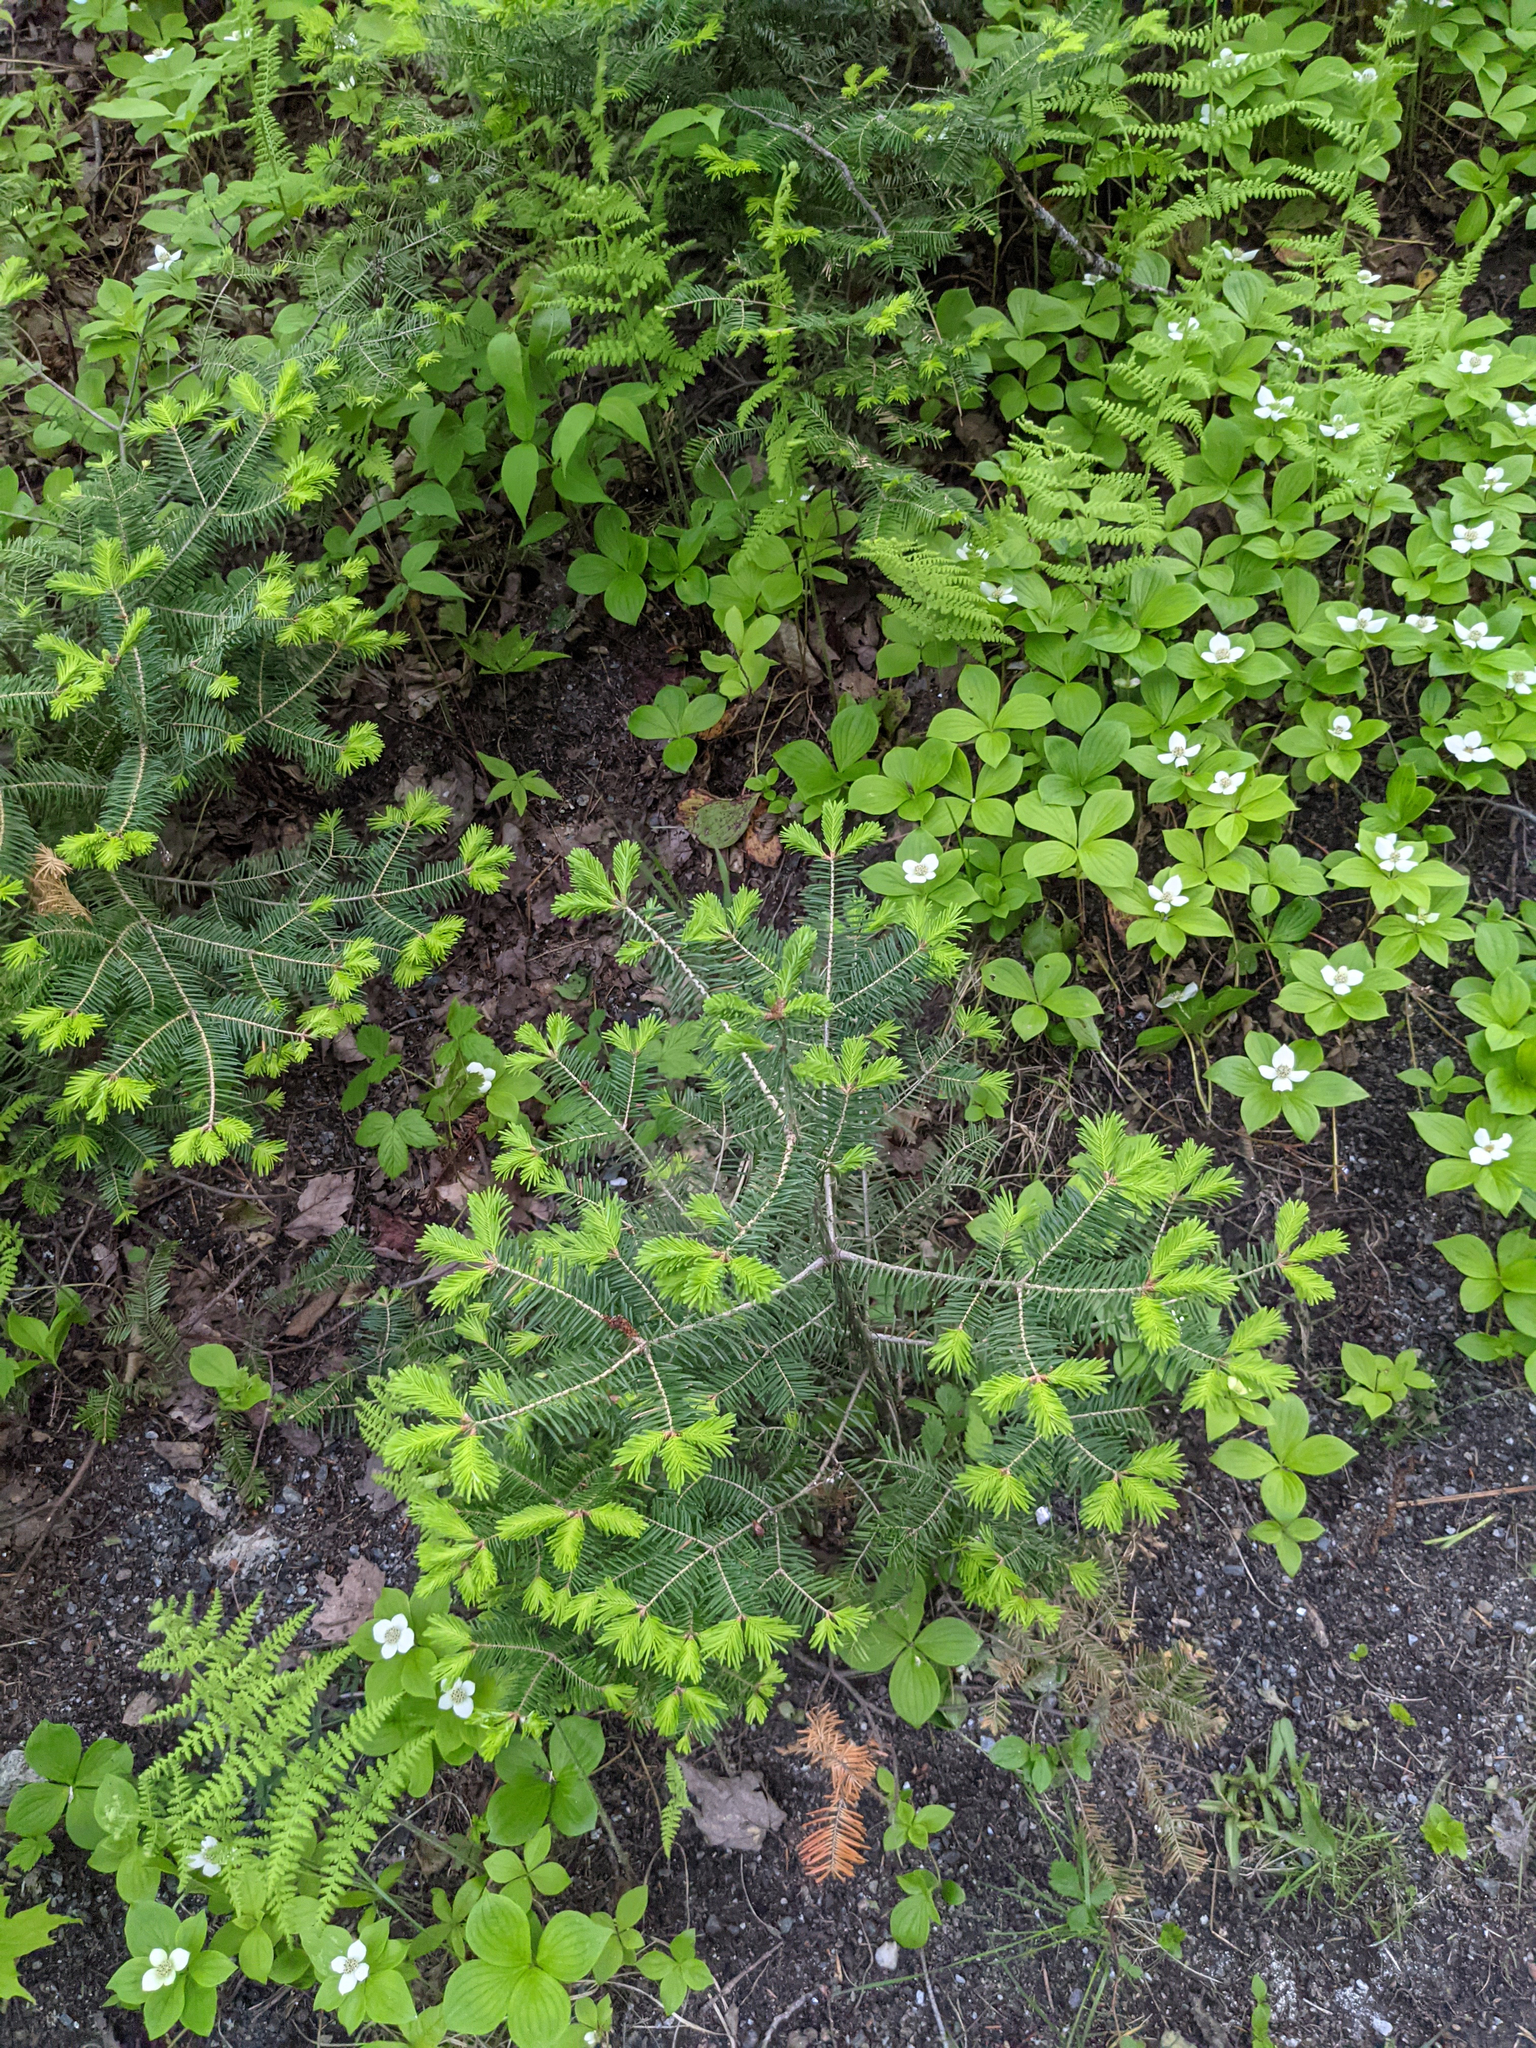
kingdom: Plantae
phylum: Tracheophyta
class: Pinopsida
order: Pinales
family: Pinaceae
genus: Abies
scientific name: Abies balsamea
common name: Balsam fir
